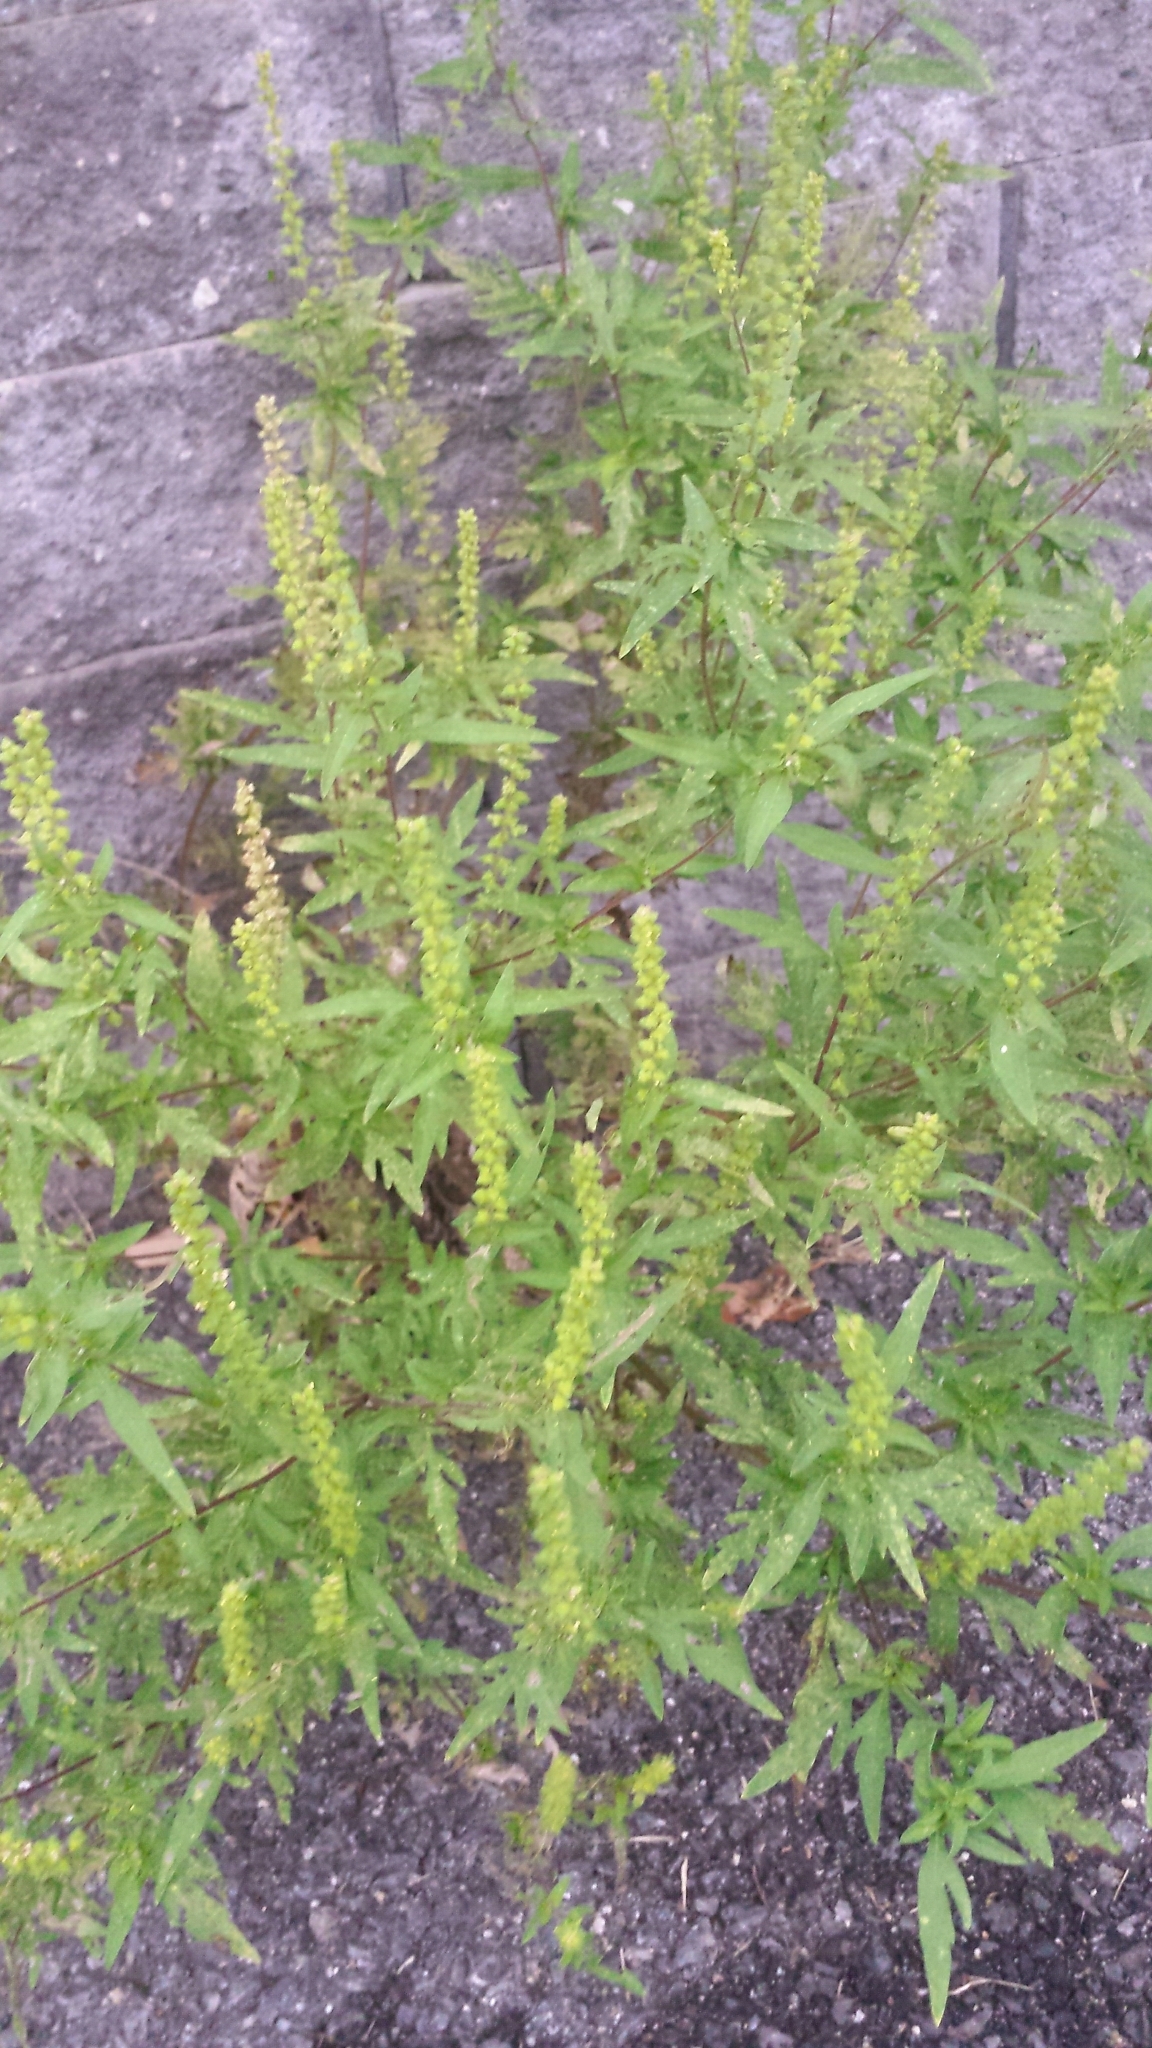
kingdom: Plantae
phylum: Tracheophyta
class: Magnoliopsida
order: Asterales
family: Asteraceae
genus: Ambrosia
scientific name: Ambrosia artemisiifolia
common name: Annual ragweed
